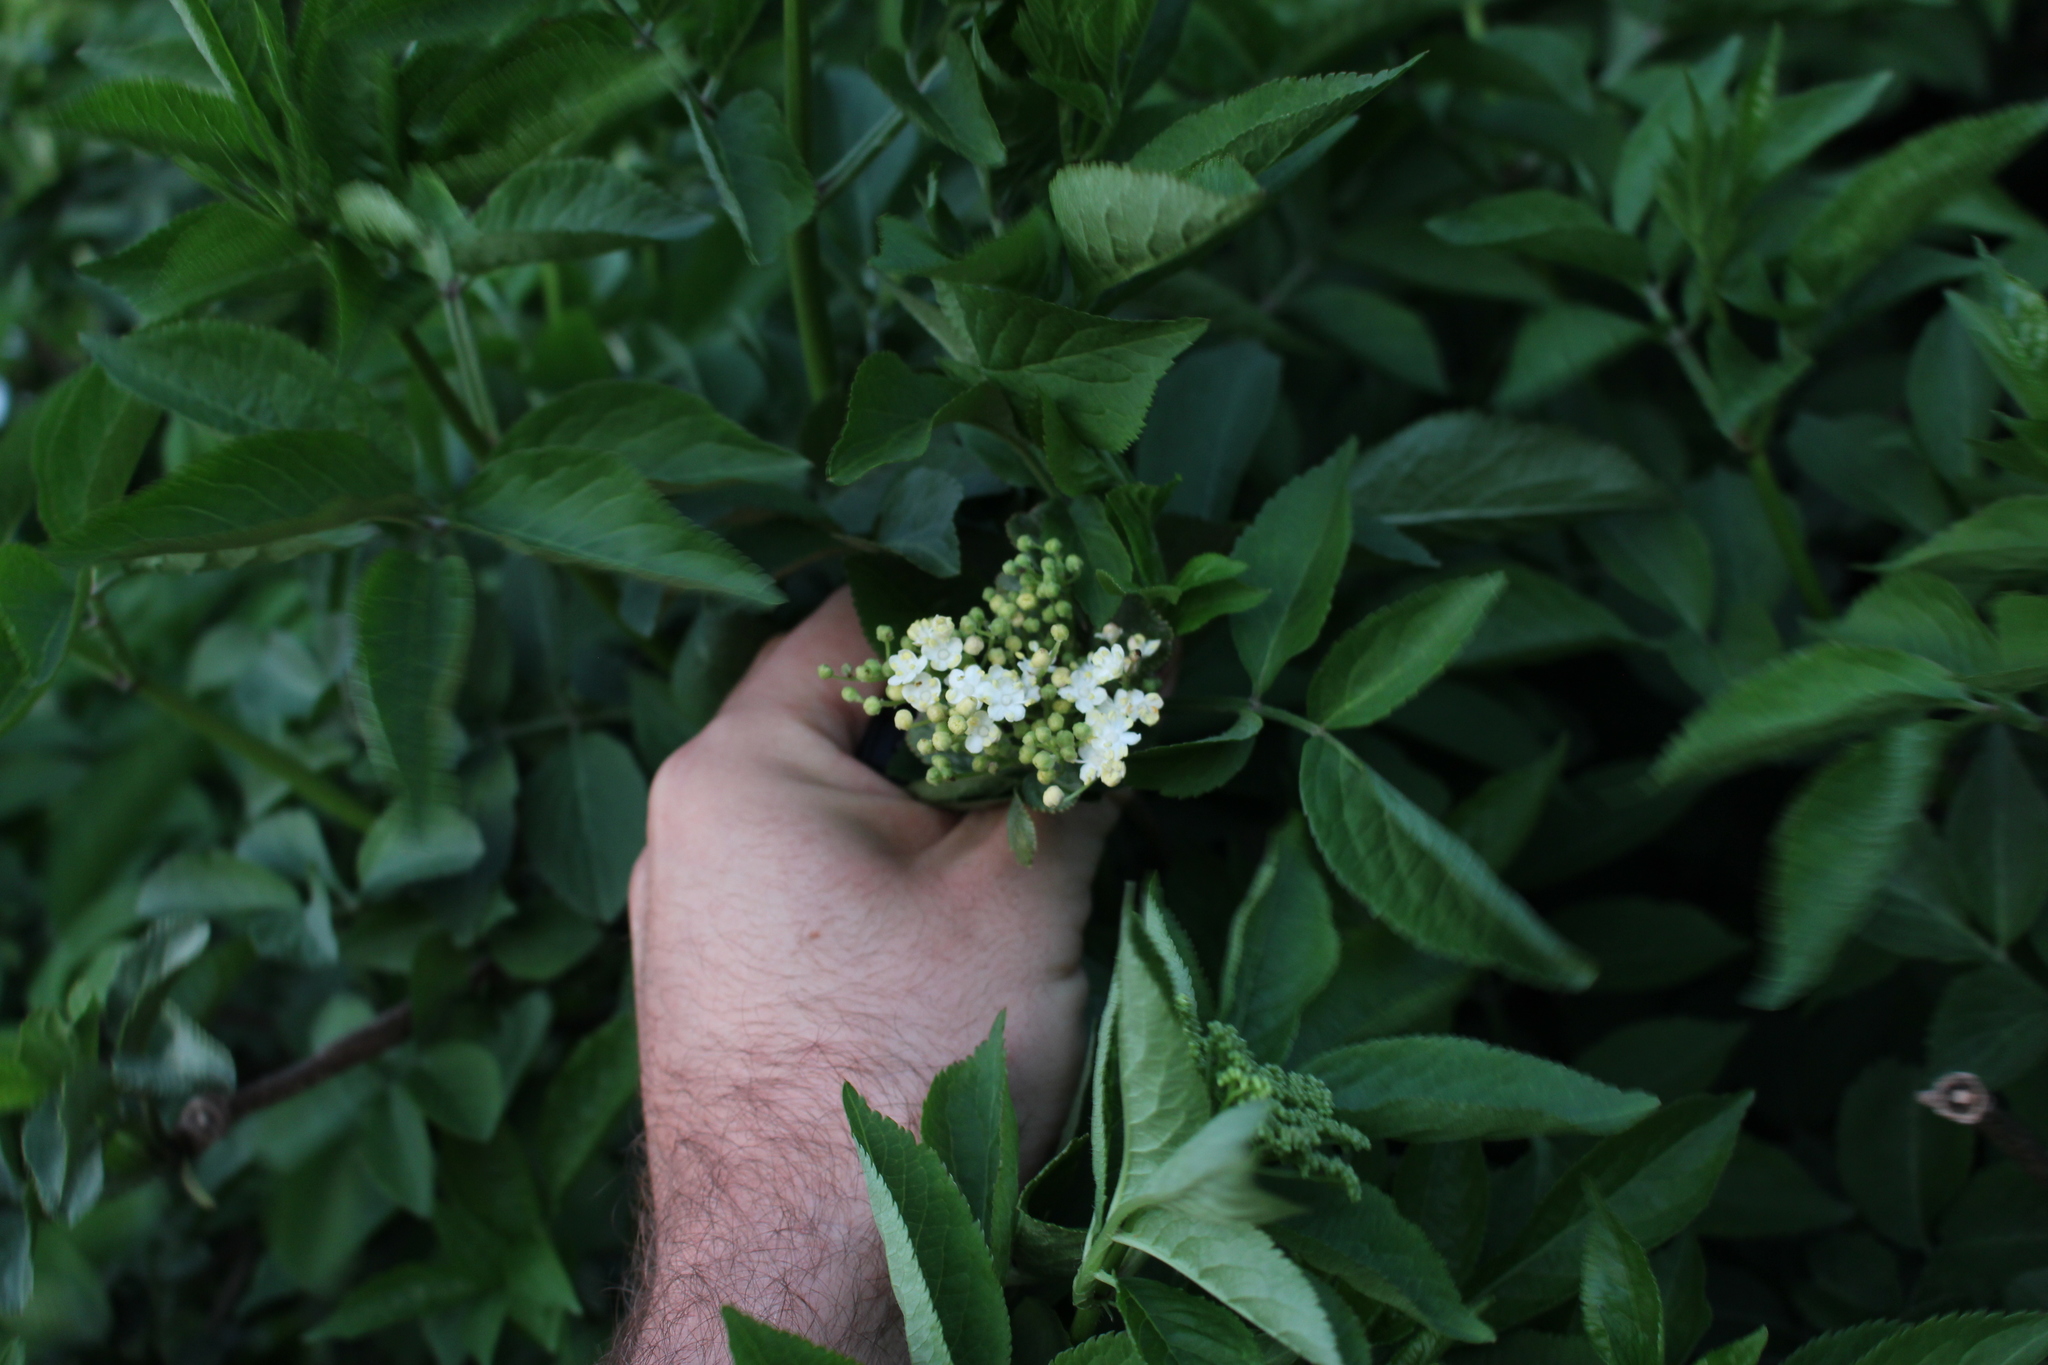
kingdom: Plantae
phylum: Tracheophyta
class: Magnoliopsida
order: Dipsacales
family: Viburnaceae
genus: Sambucus
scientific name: Sambucus nigra
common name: Elder
